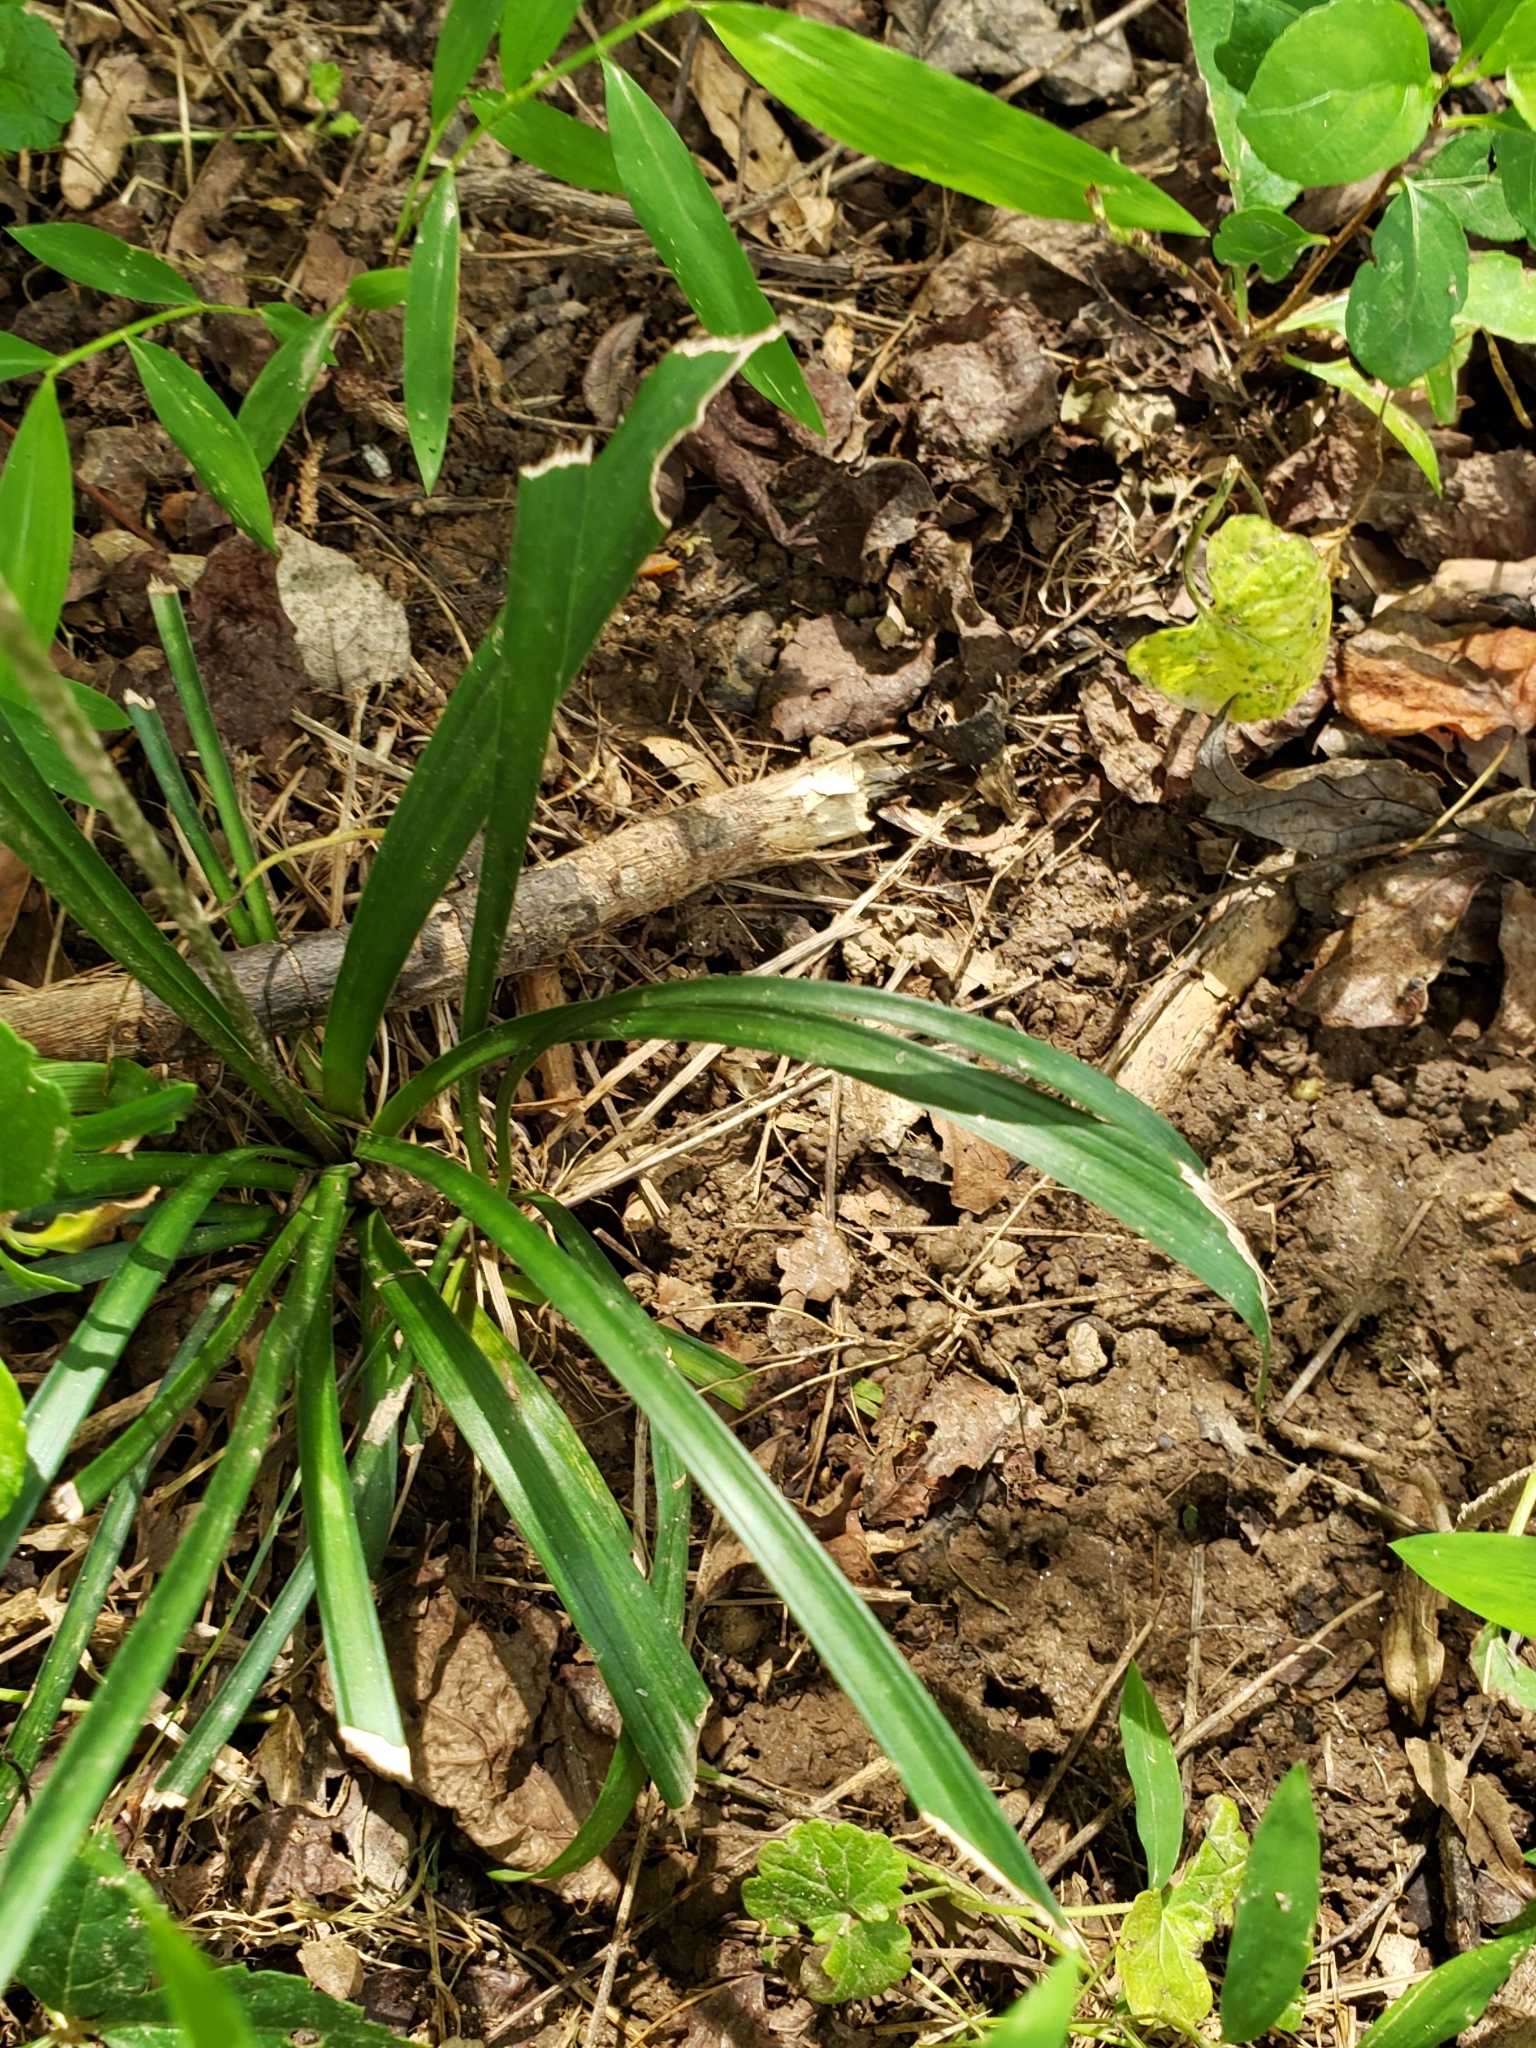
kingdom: Plantae
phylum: Tracheophyta
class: Liliopsida
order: Asparagales
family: Asparagaceae
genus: Liriope
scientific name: Liriope graminifolia
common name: Lilyturf
